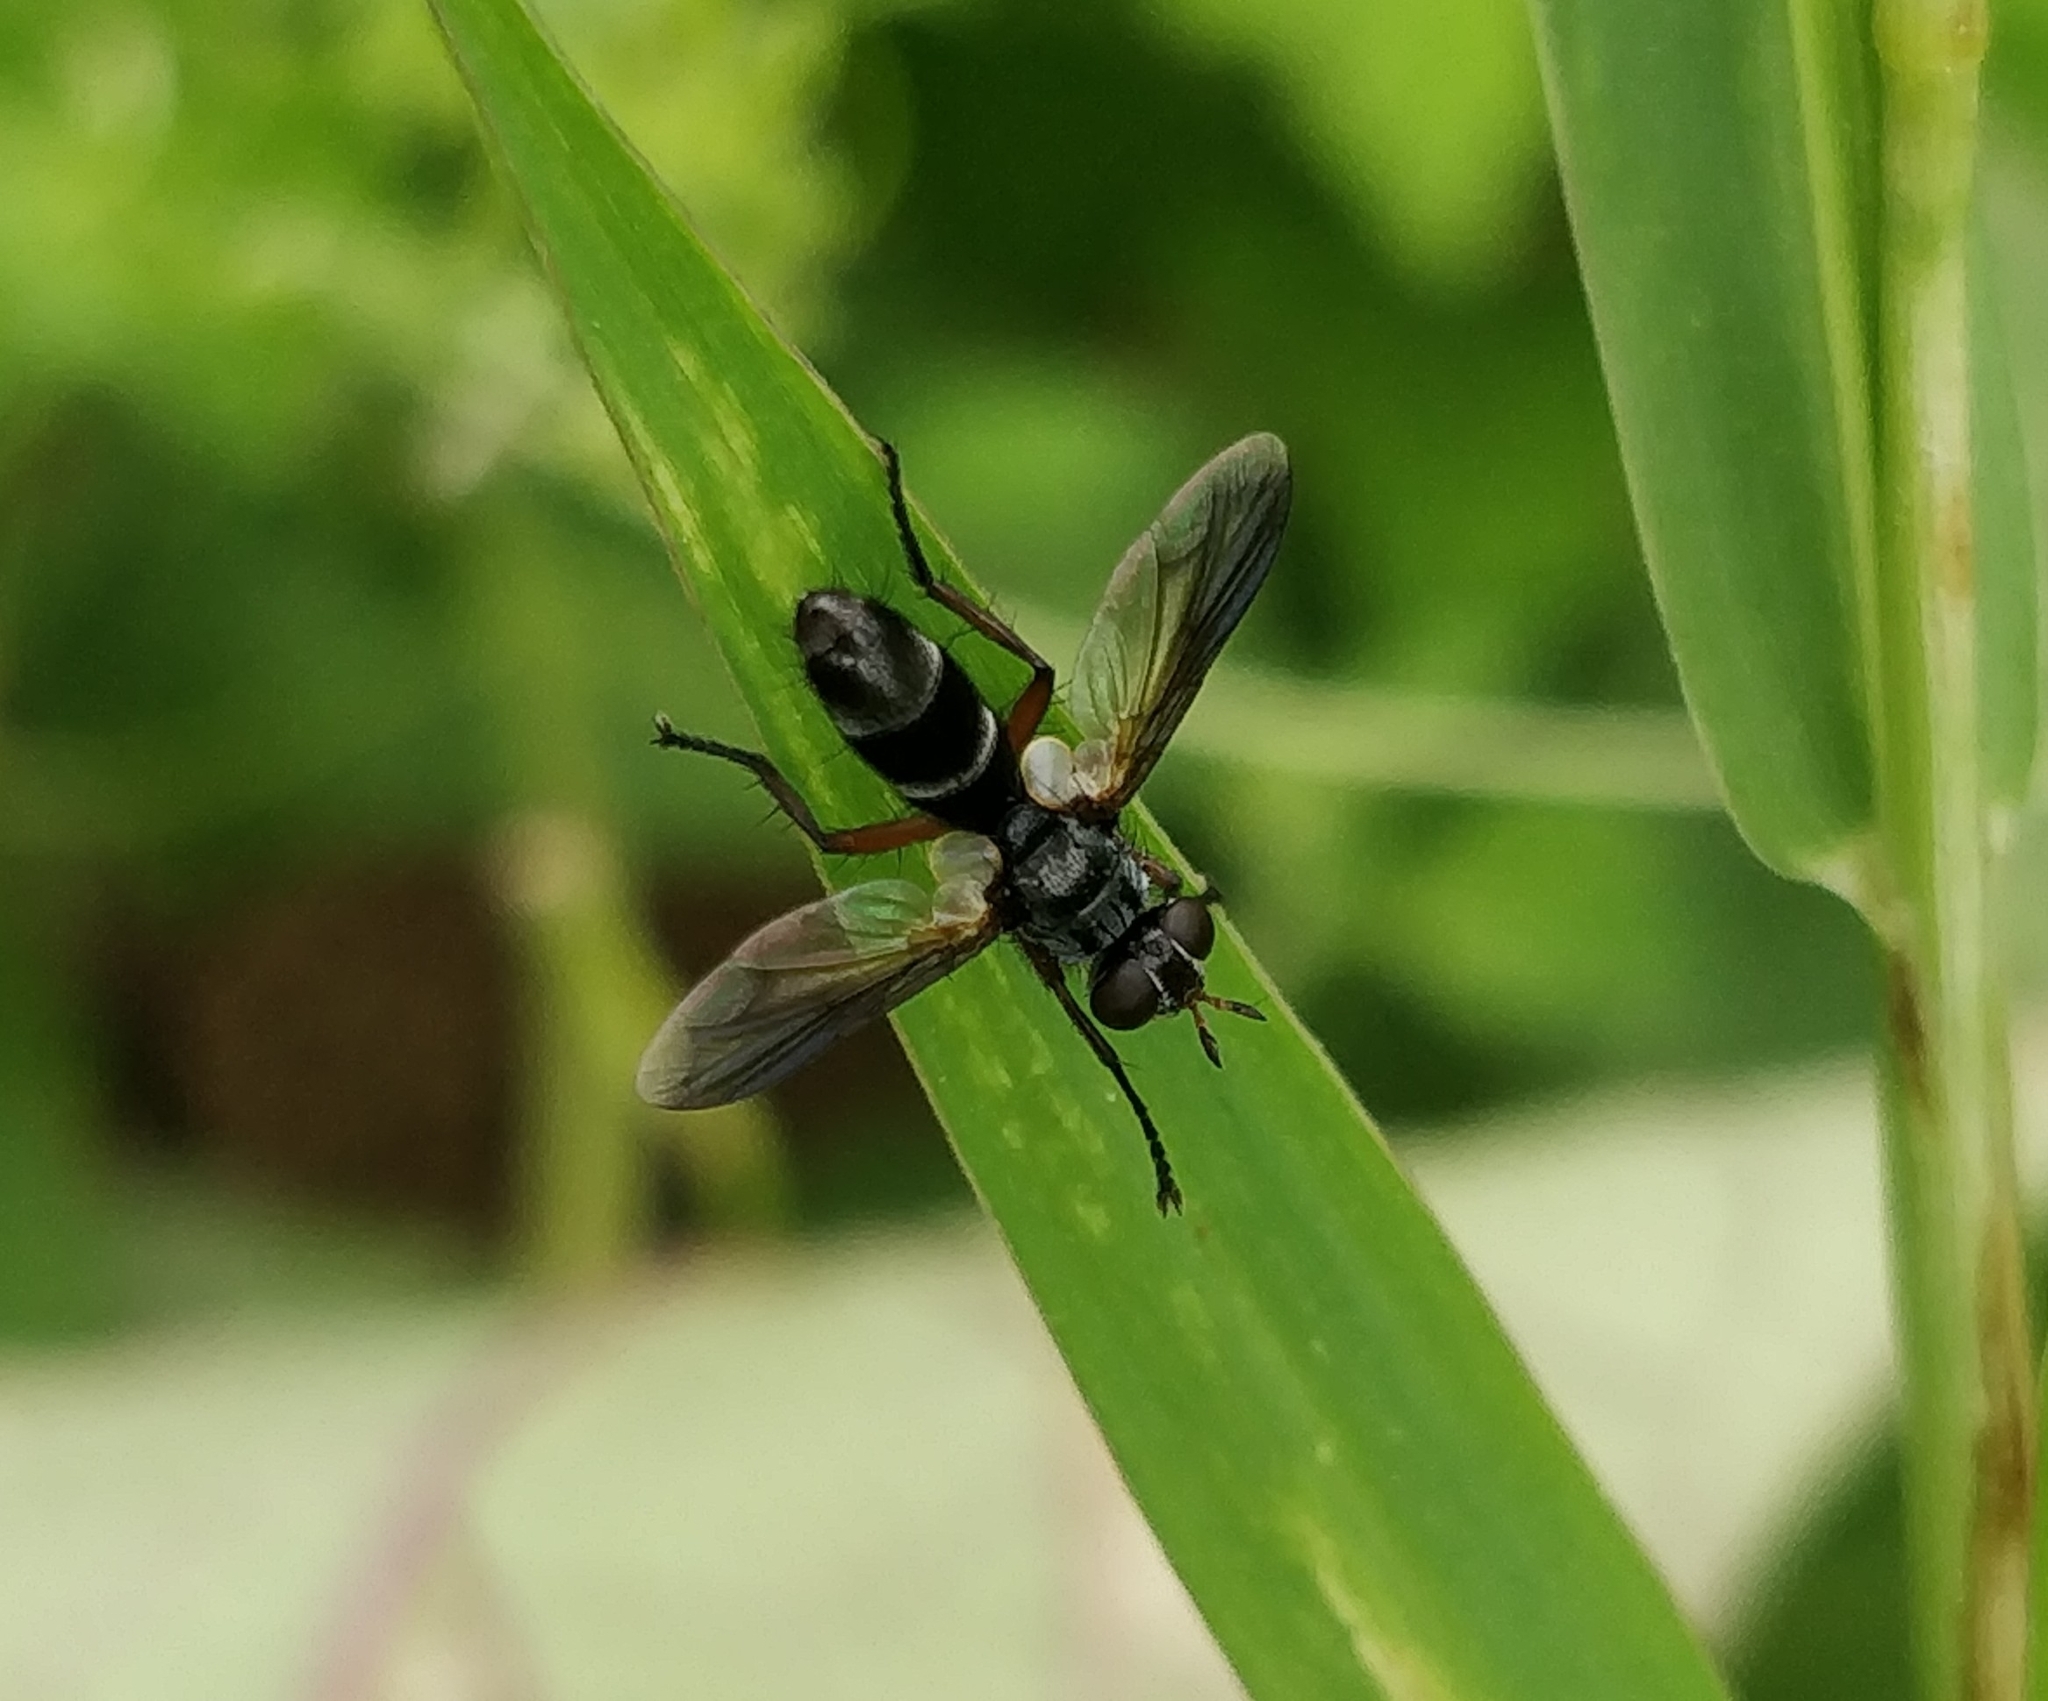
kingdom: Animalia
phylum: Arthropoda
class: Insecta
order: Diptera
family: Tachinidae
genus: Cylindromyia
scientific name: Cylindromyia rufipes
